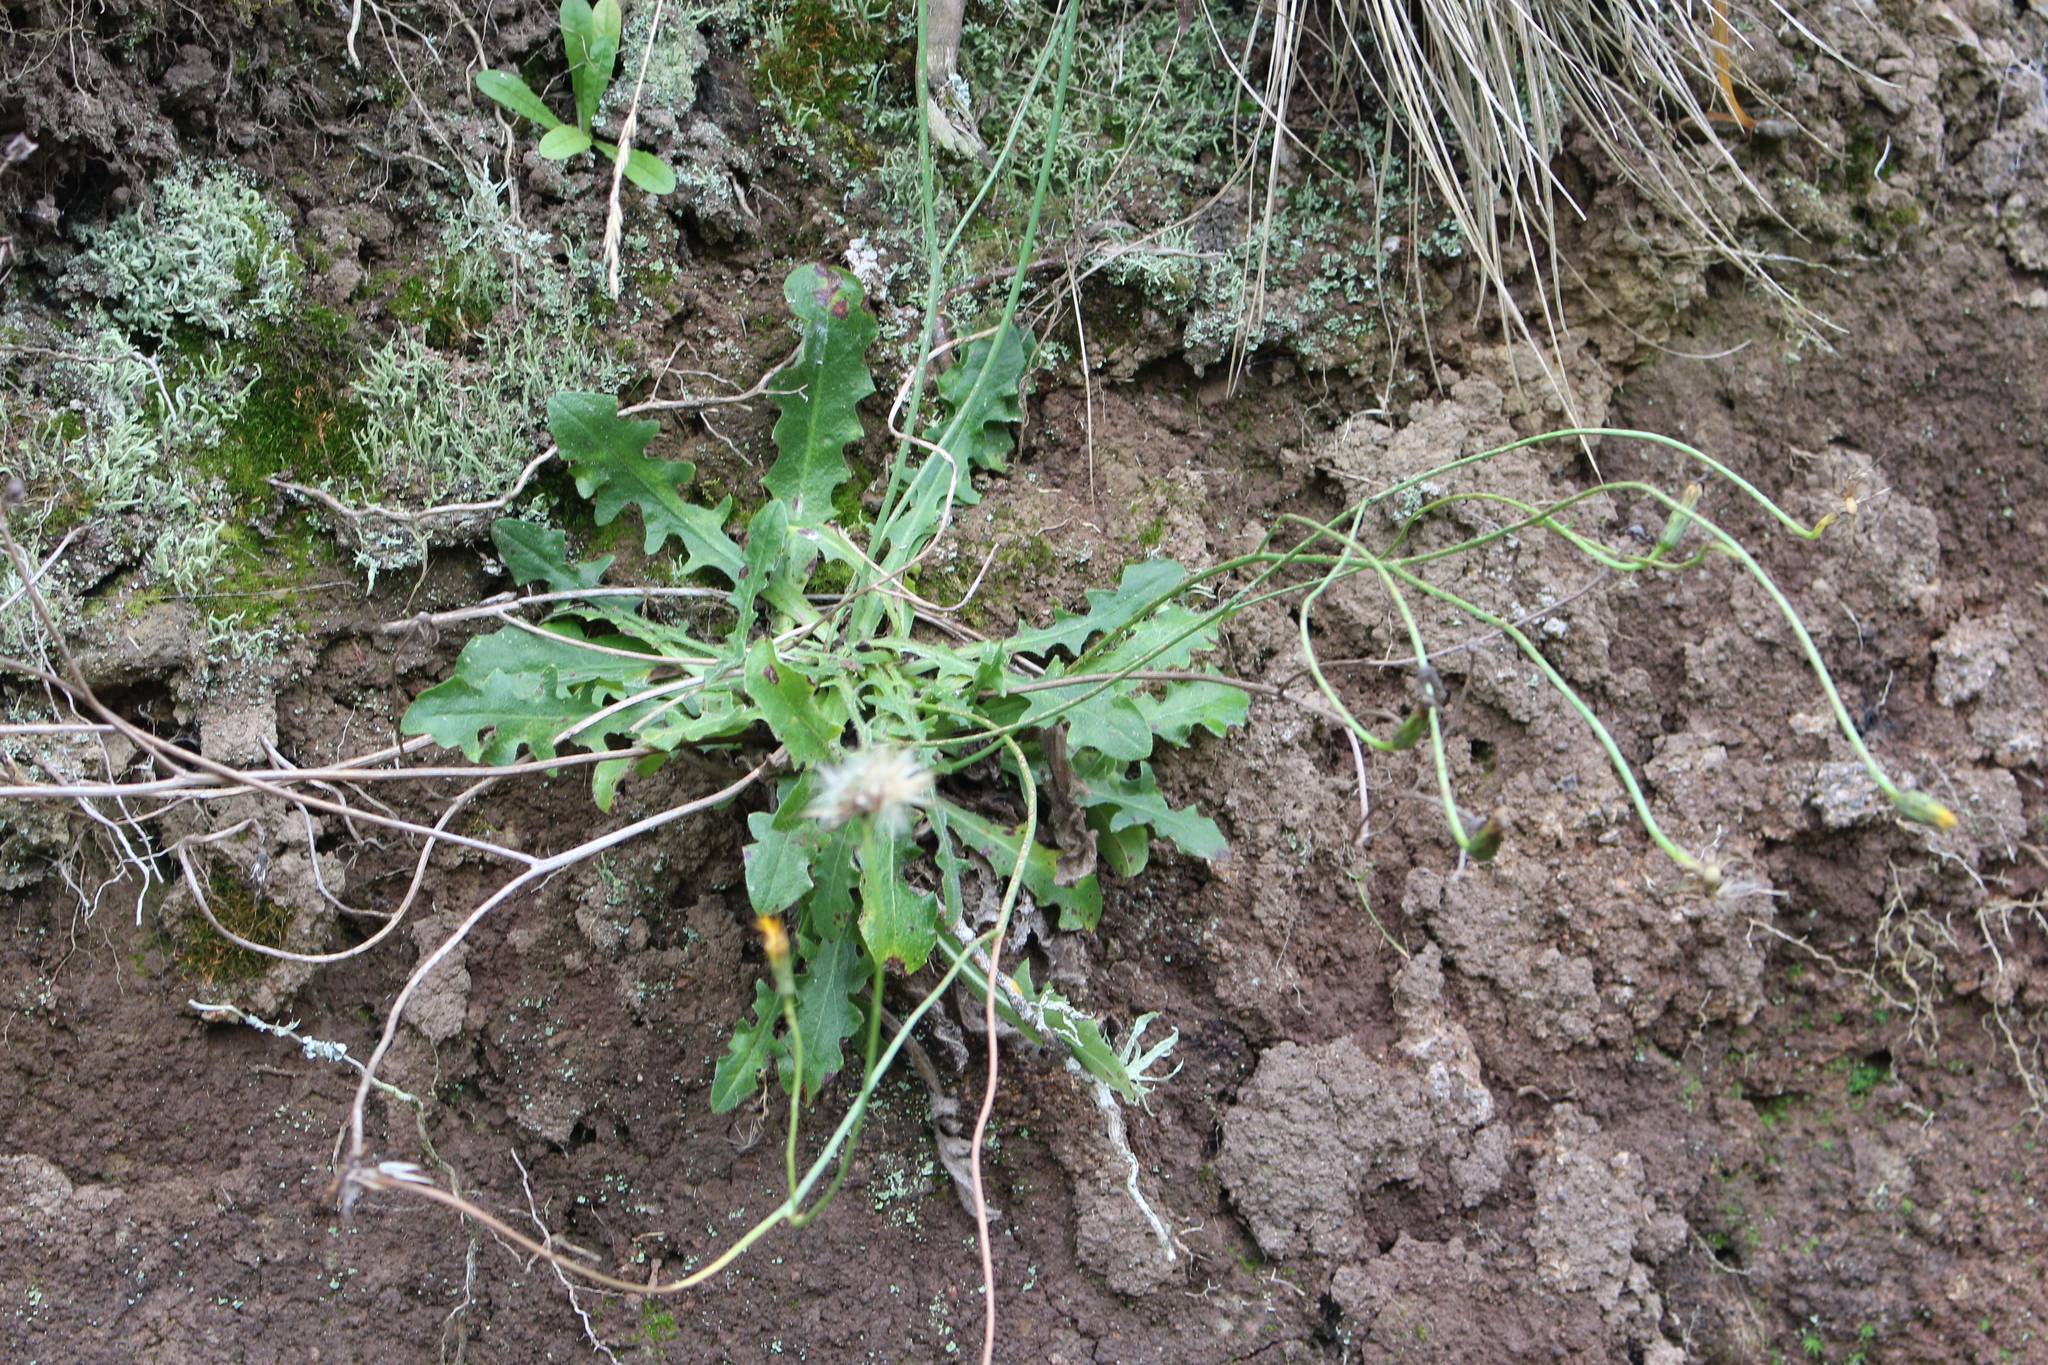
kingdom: Plantae
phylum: Tracheophyta
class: Magnoliopsida
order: Asterales
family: Asteraceae
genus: Hypochaeris
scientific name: Hypochaeris radicata
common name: Flatweed
